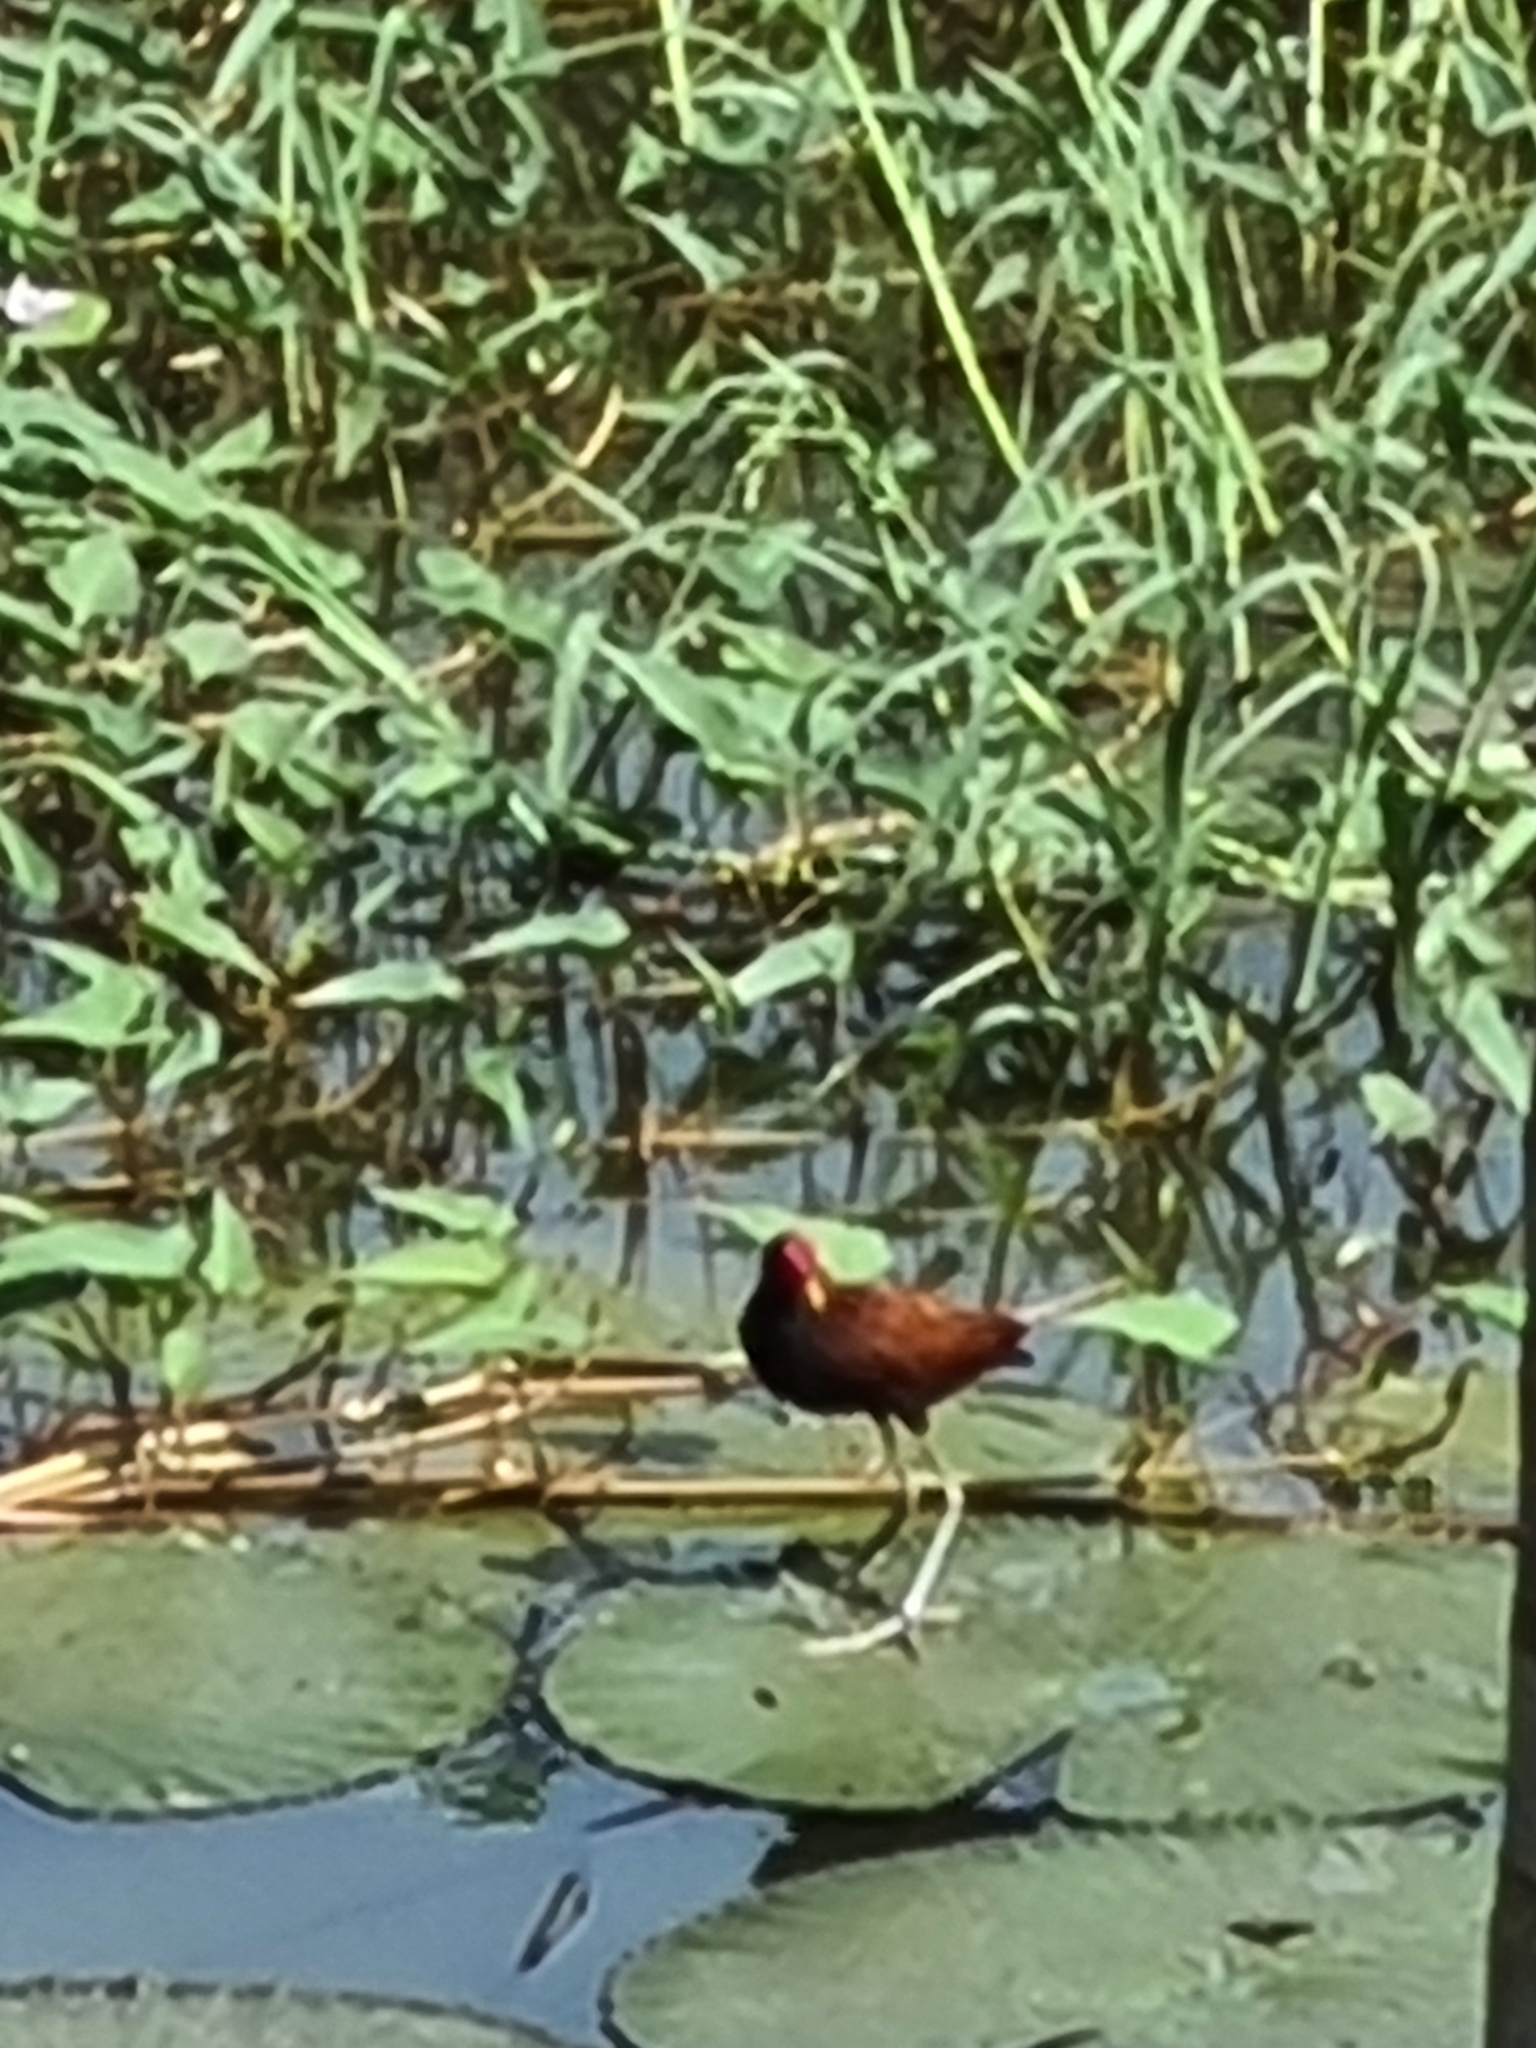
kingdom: Animalia
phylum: Chordata
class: Aves
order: Charadriiformes
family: Jacanidae
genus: Jacana
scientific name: Jacana jacana
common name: Wattled jacana
